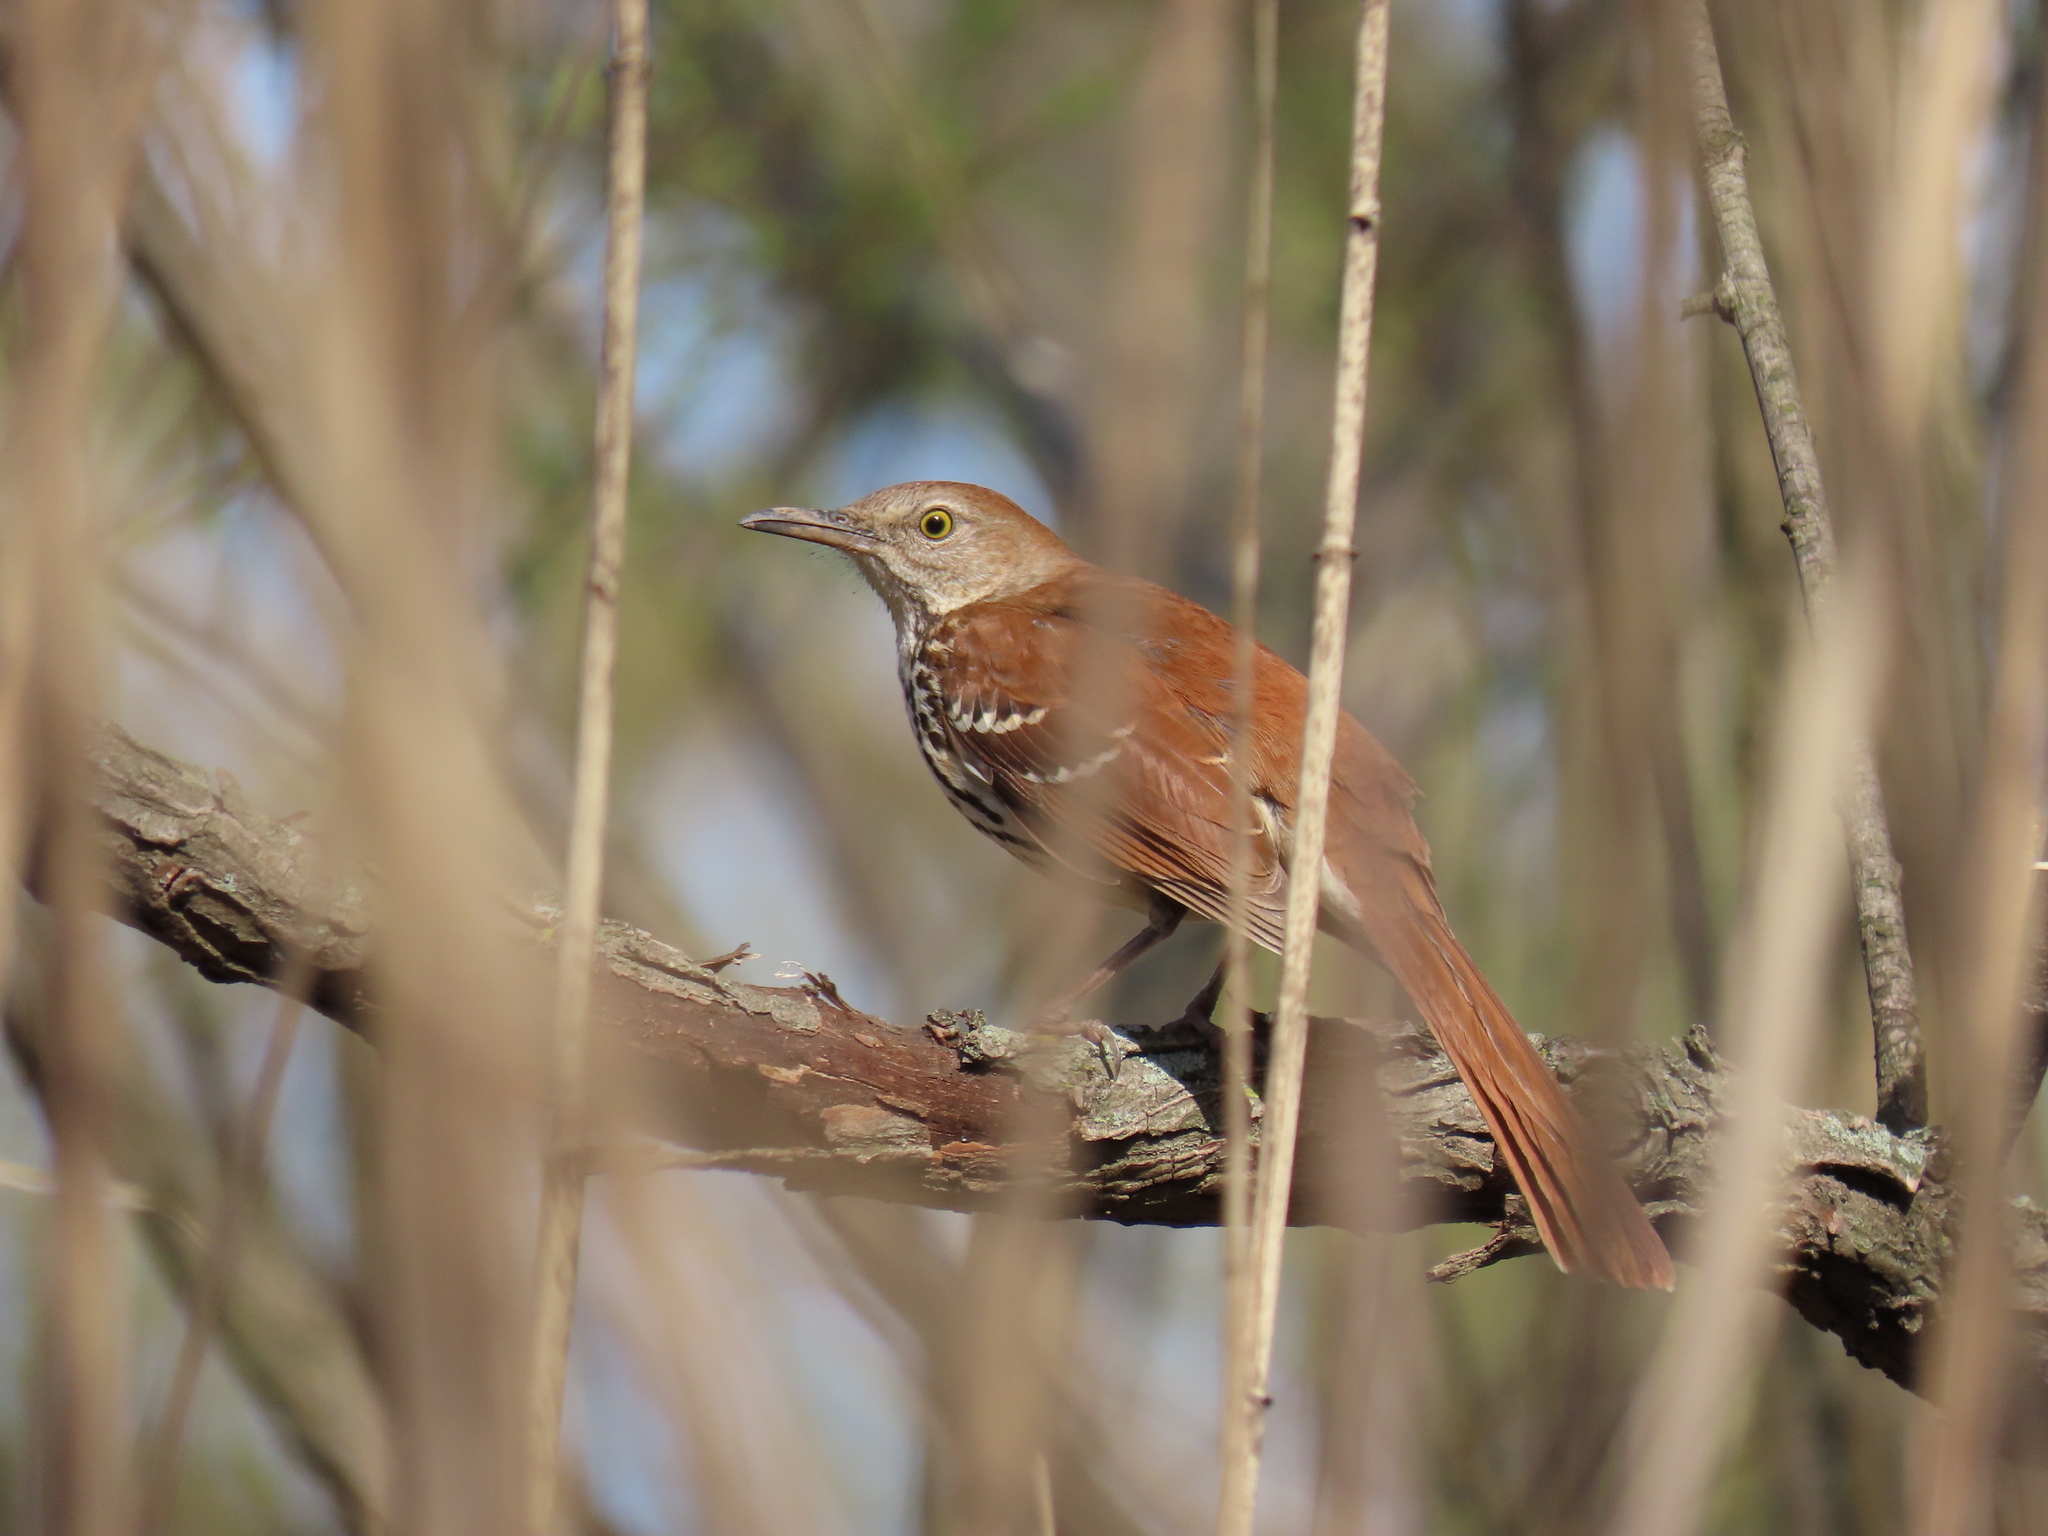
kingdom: Animalia
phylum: Chordata
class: Aves
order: Passeriformes
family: Mimidae
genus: Toxostoma
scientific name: Toxostoma rufum
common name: Brown thrasher
